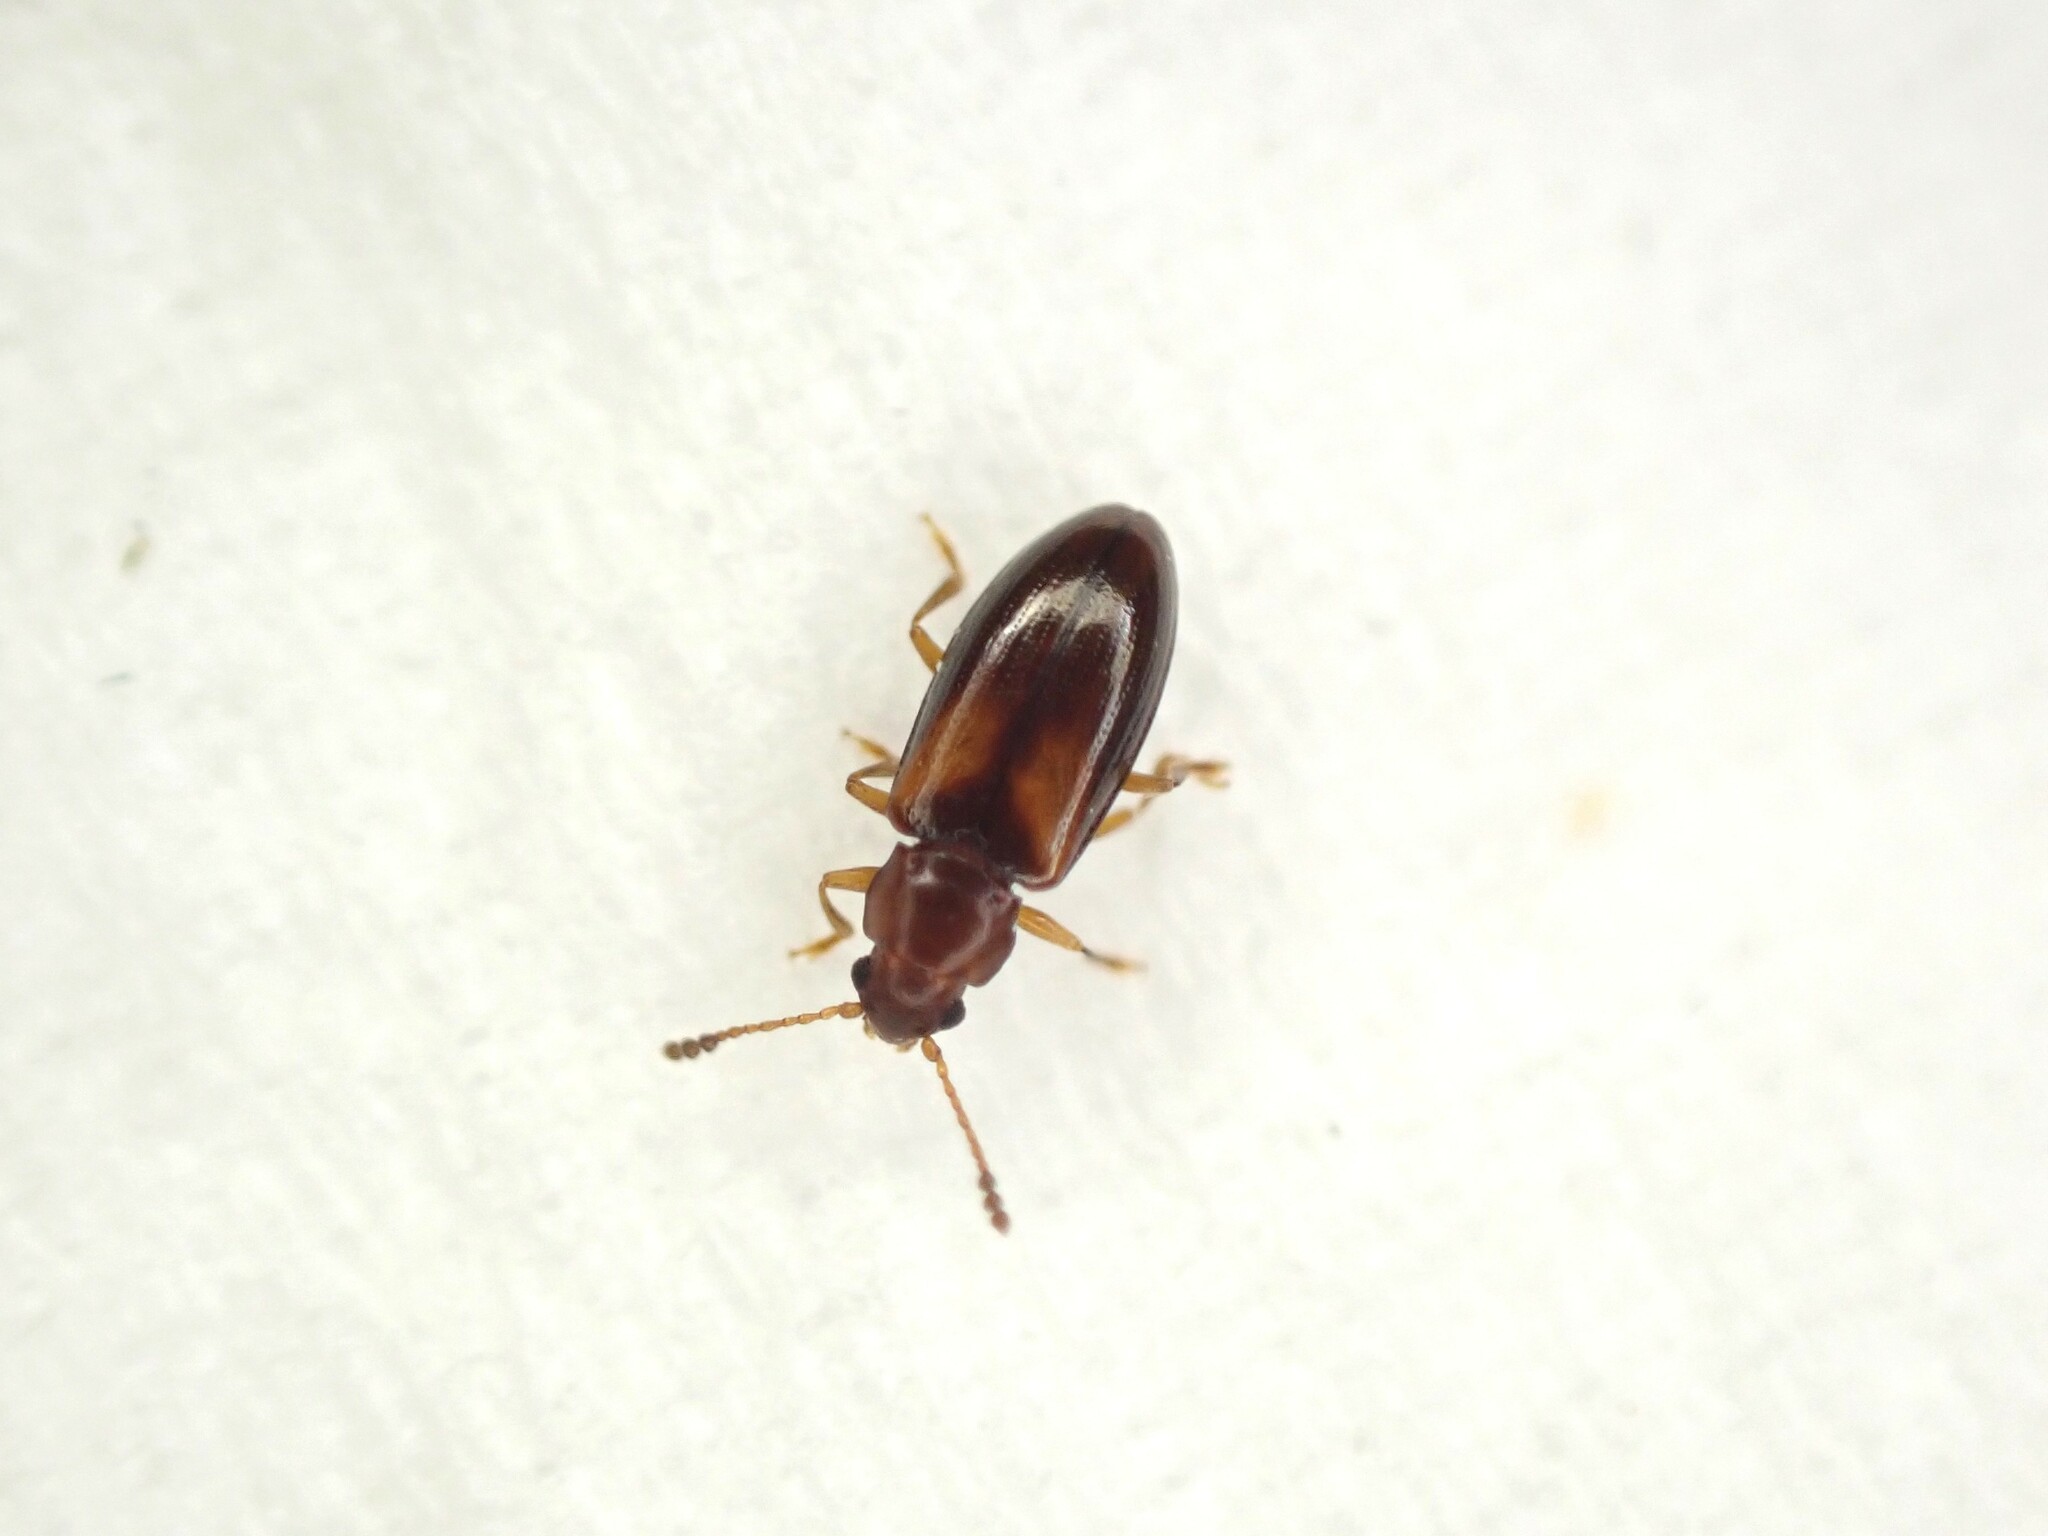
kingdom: Animalia
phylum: Arthropoda
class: Insecta
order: Coleoptera
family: Erotylidae
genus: Loberus
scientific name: Loberus depressus
